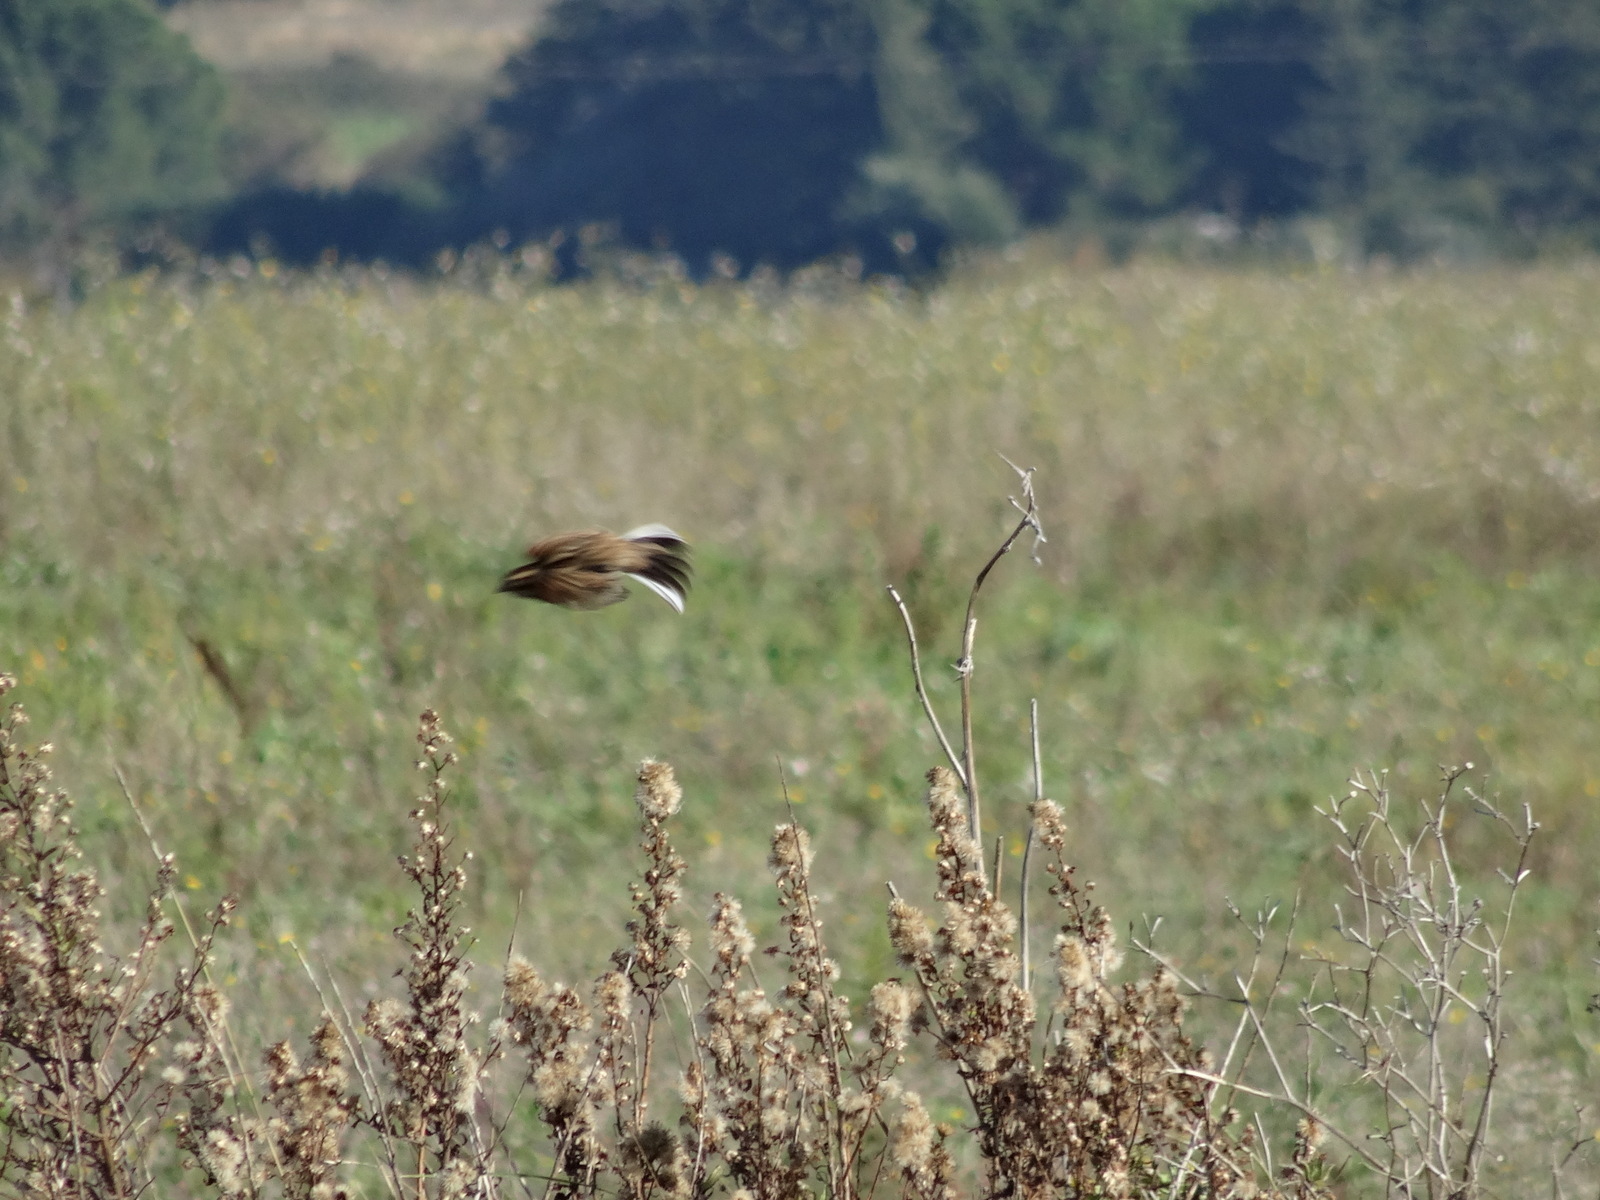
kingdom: Animalia
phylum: Chordata
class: Aves
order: Passeriformes
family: Emberizidae
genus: Emberiza
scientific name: Emberiza schoeniclus
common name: Reed bunting
